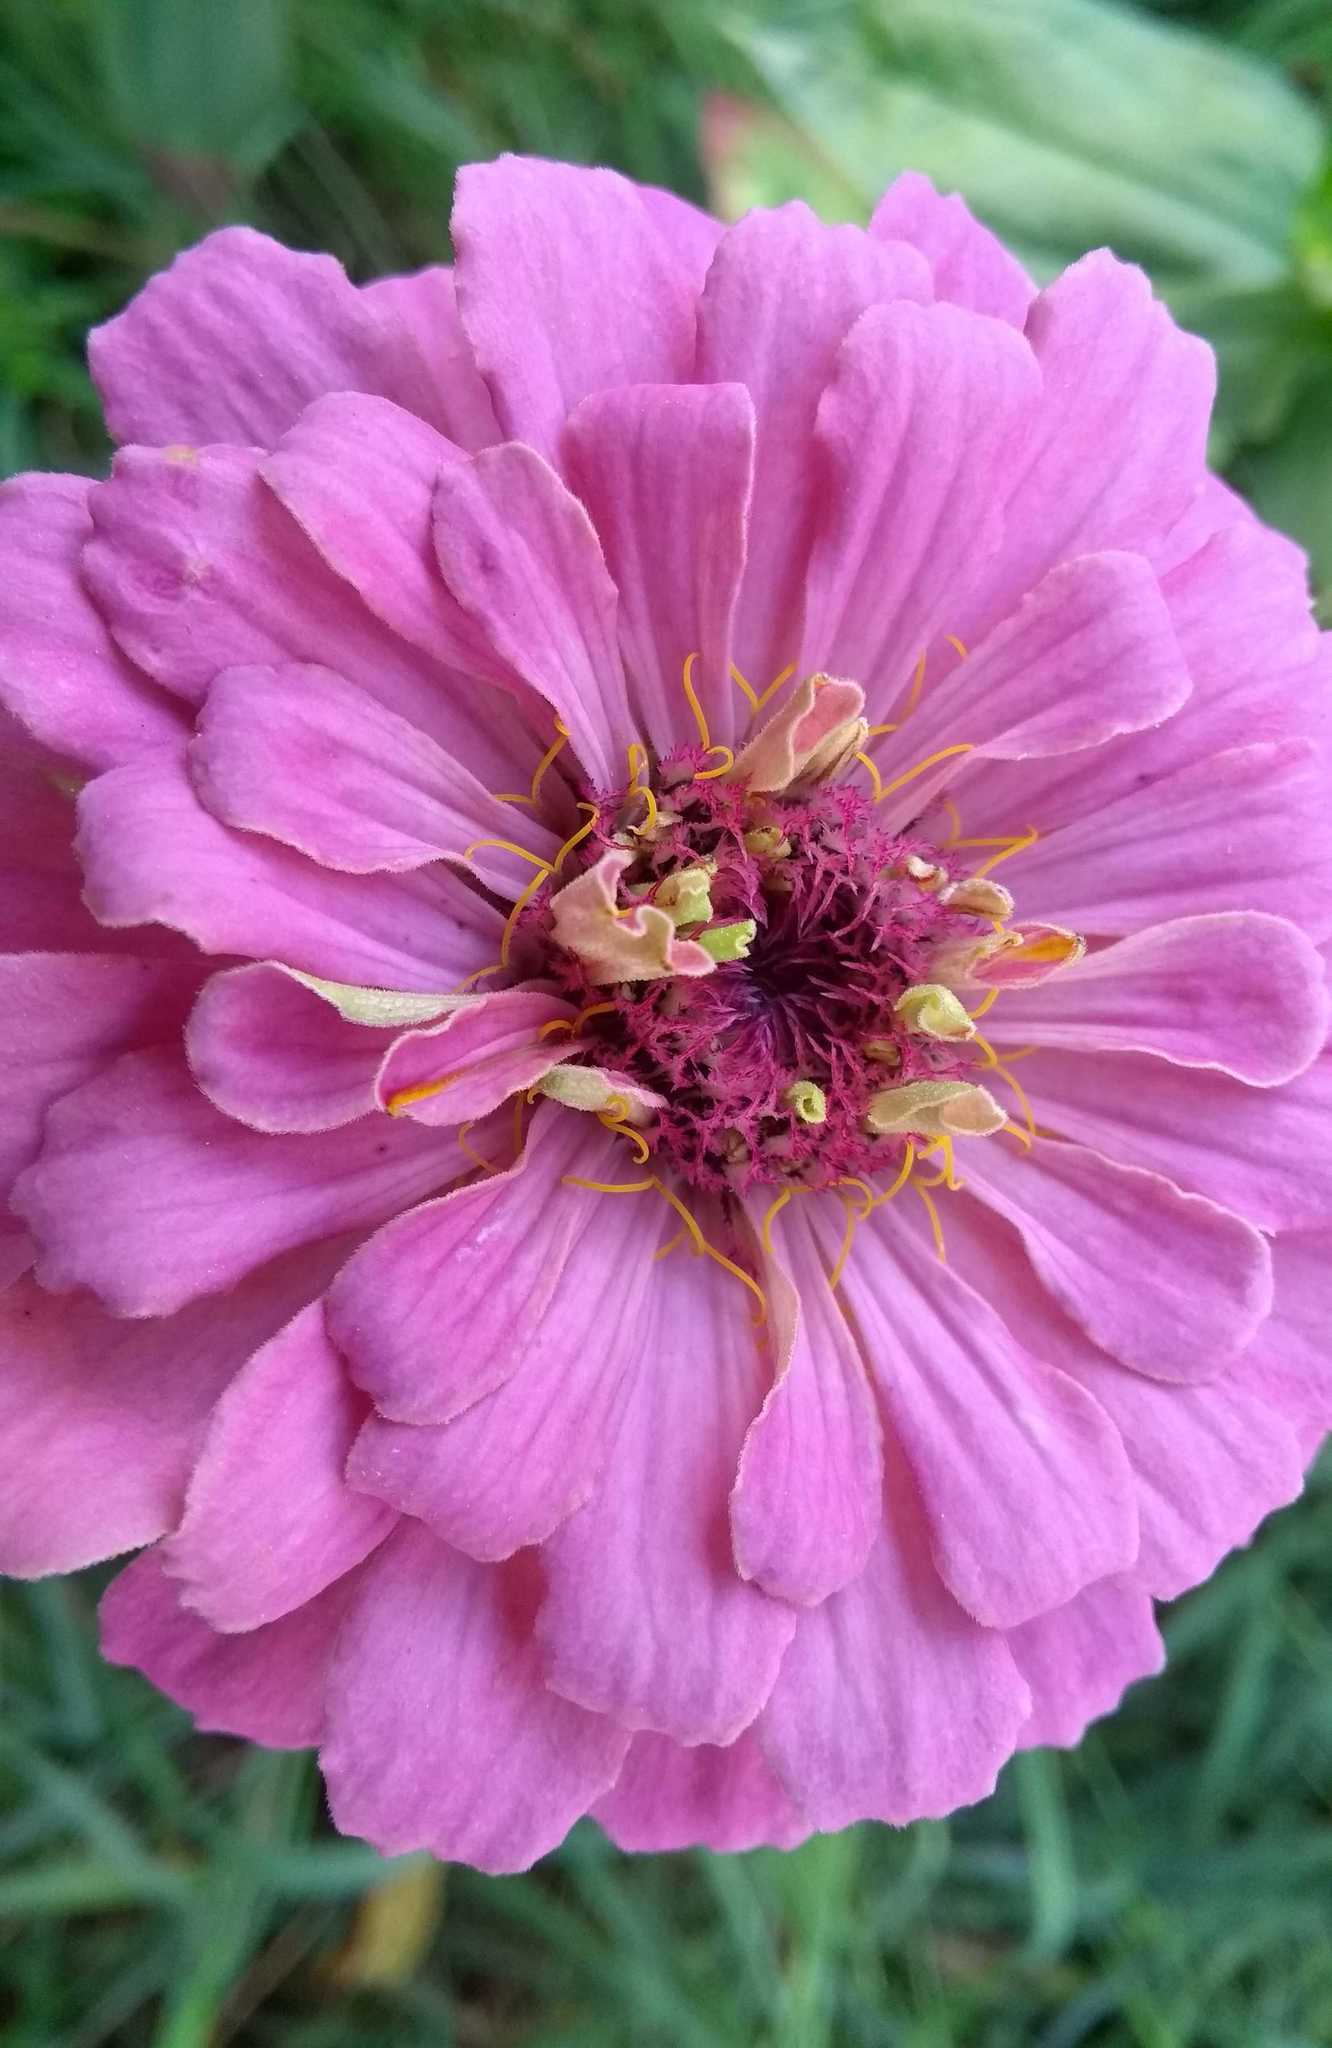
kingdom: Plantae
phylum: Tracheophyta
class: Magnoliopsida
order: Asterales
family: Asteraceae
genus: Zinnia
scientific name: Zinnia elegans
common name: Youth-and-age
